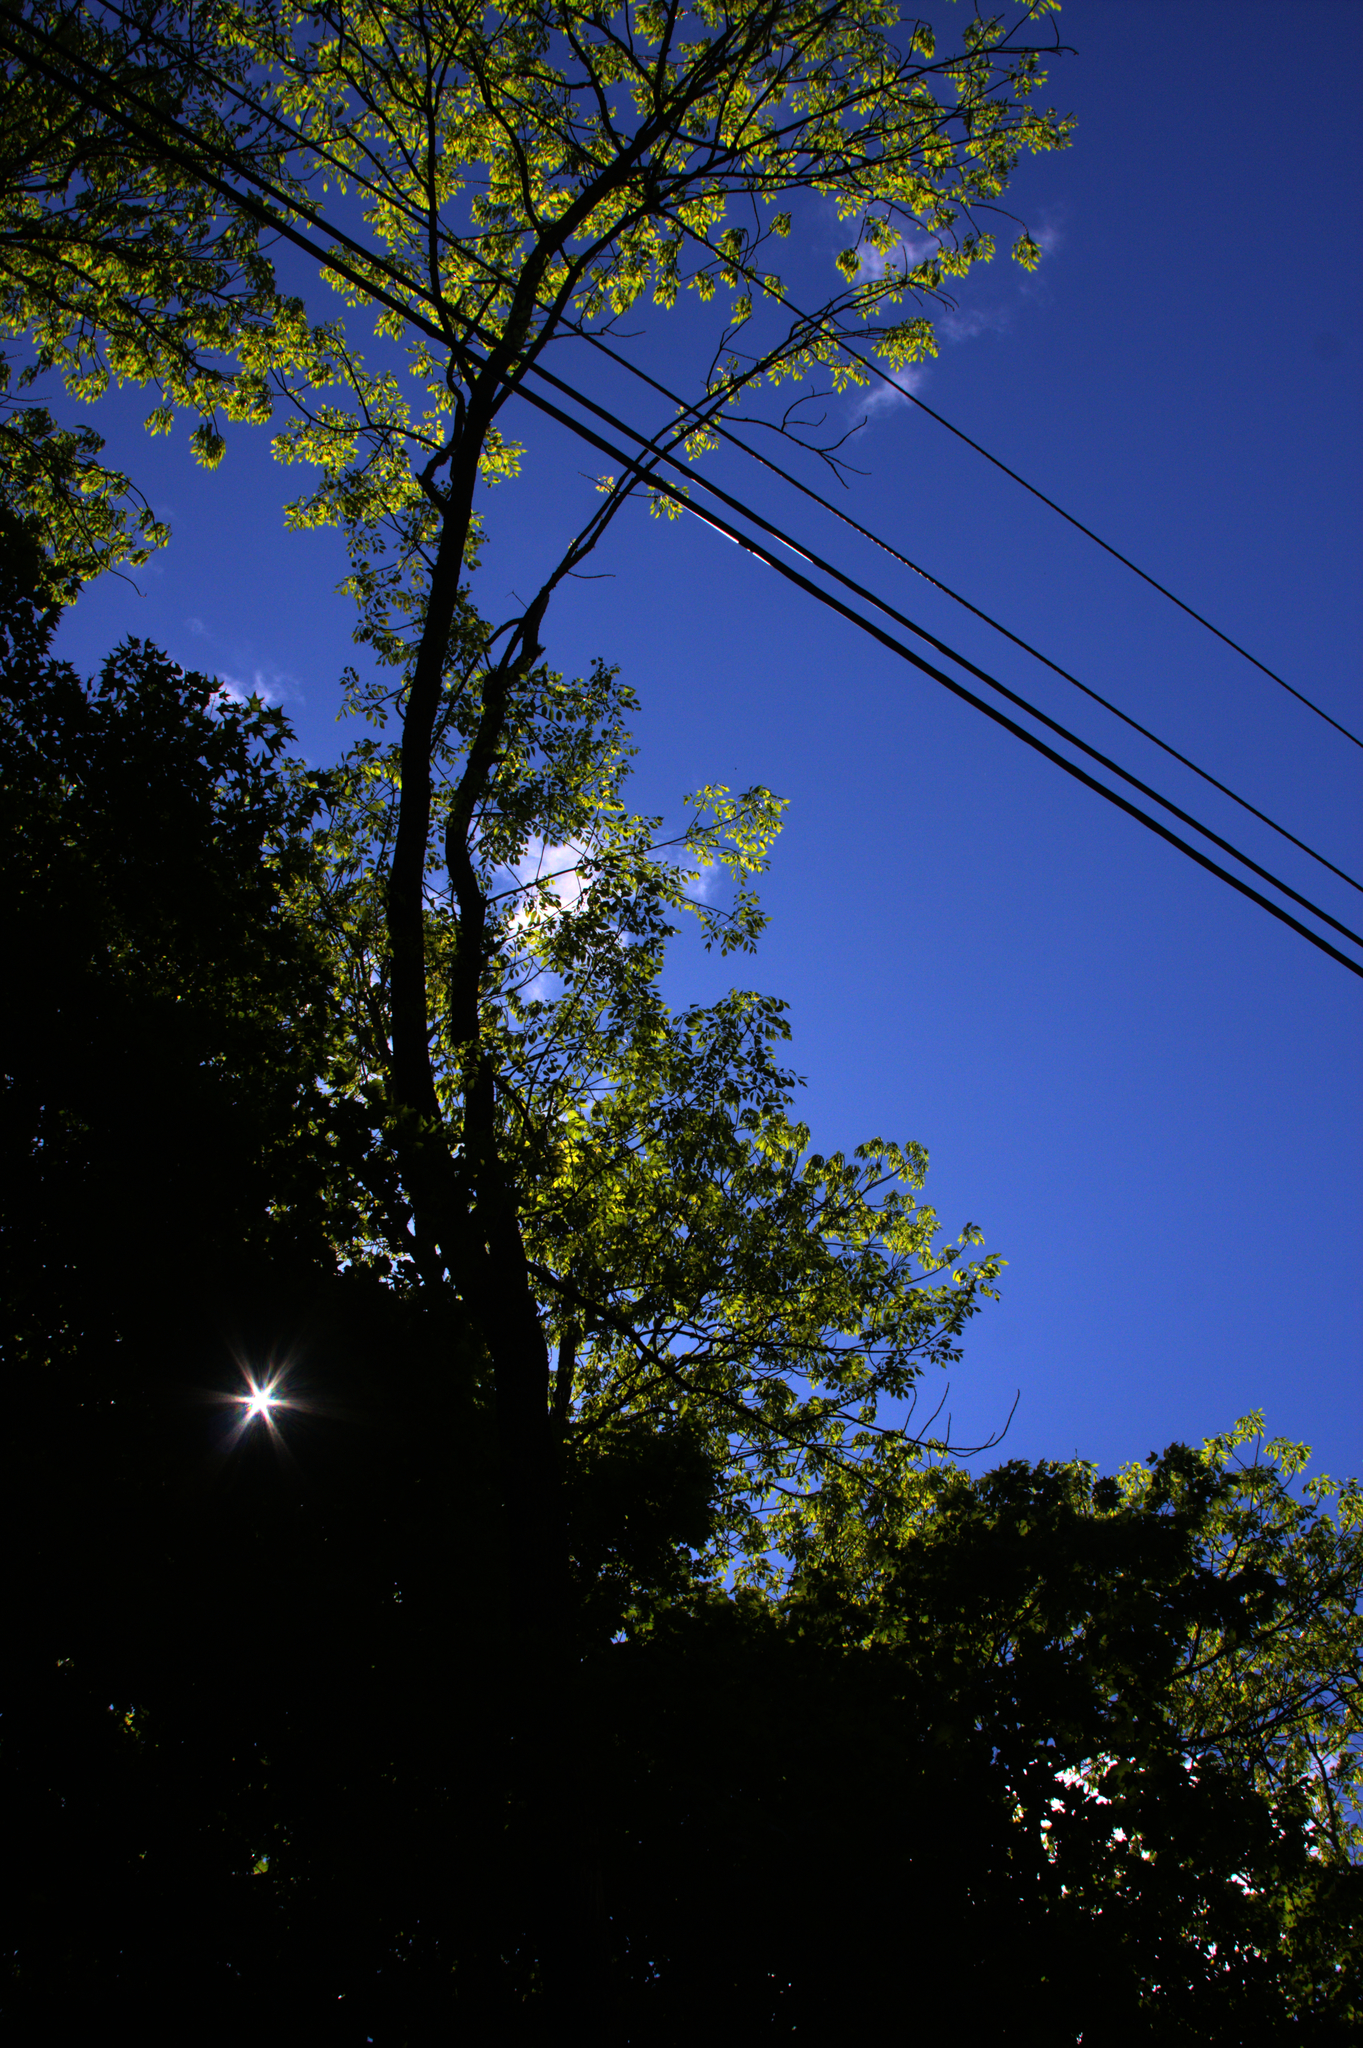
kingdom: Plantae
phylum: Tracheophyta
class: Magnoliopsida
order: Lamiales
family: Oleaceae
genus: Fraxinus
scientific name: Fraxinus americana
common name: White ash
